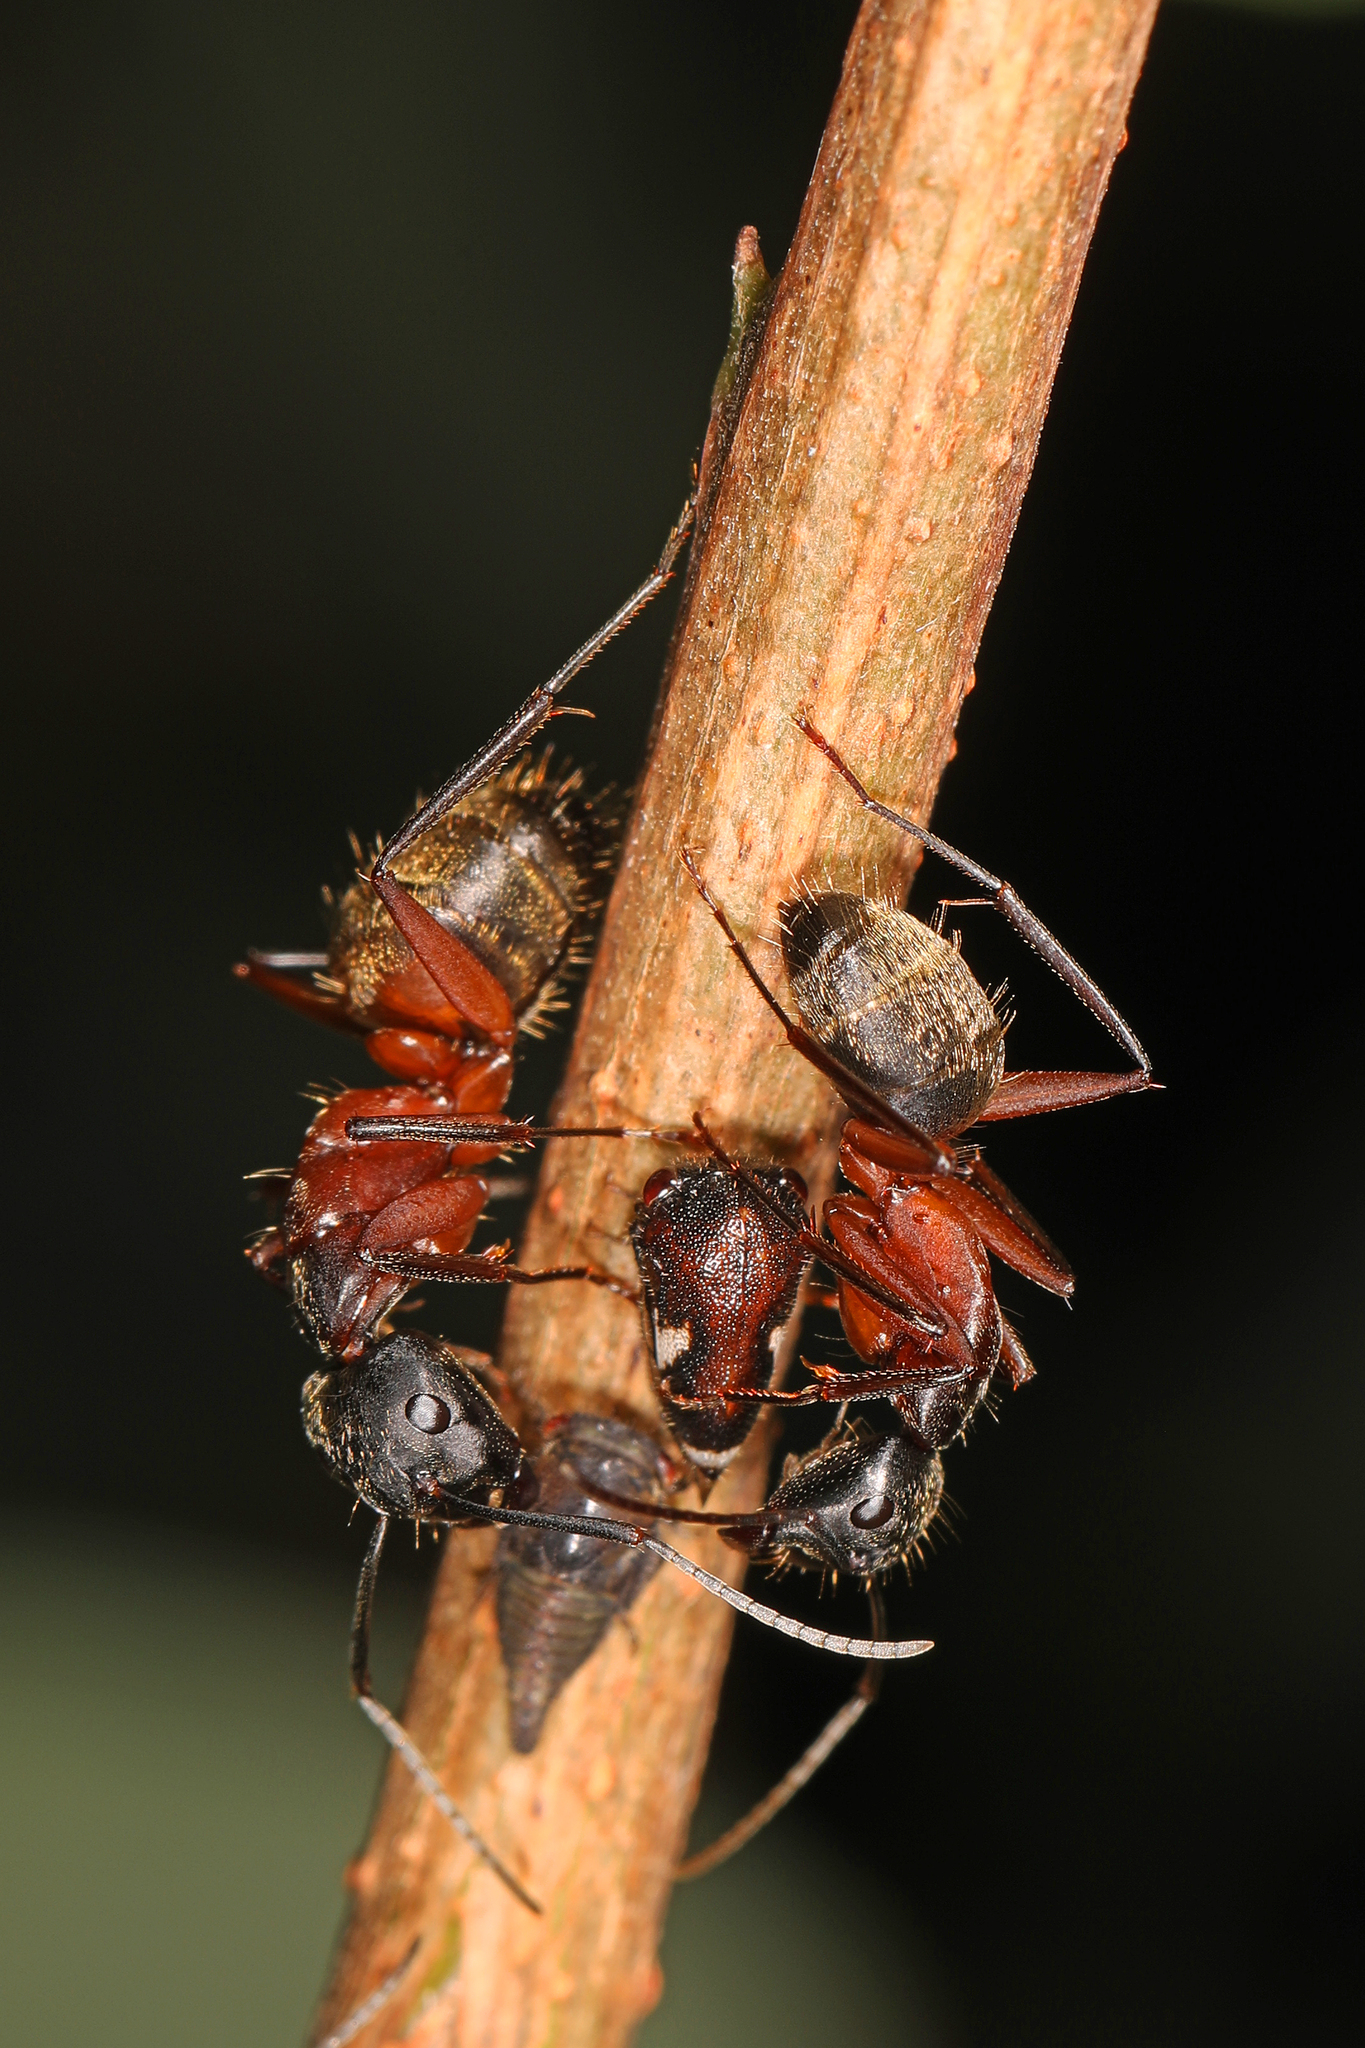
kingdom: Animalia
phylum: Arthropoda
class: Insecta
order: Hymenoptera
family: Formicidae
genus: Camponotus
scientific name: Camponotus chromaiodes
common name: Red carpenter ant
